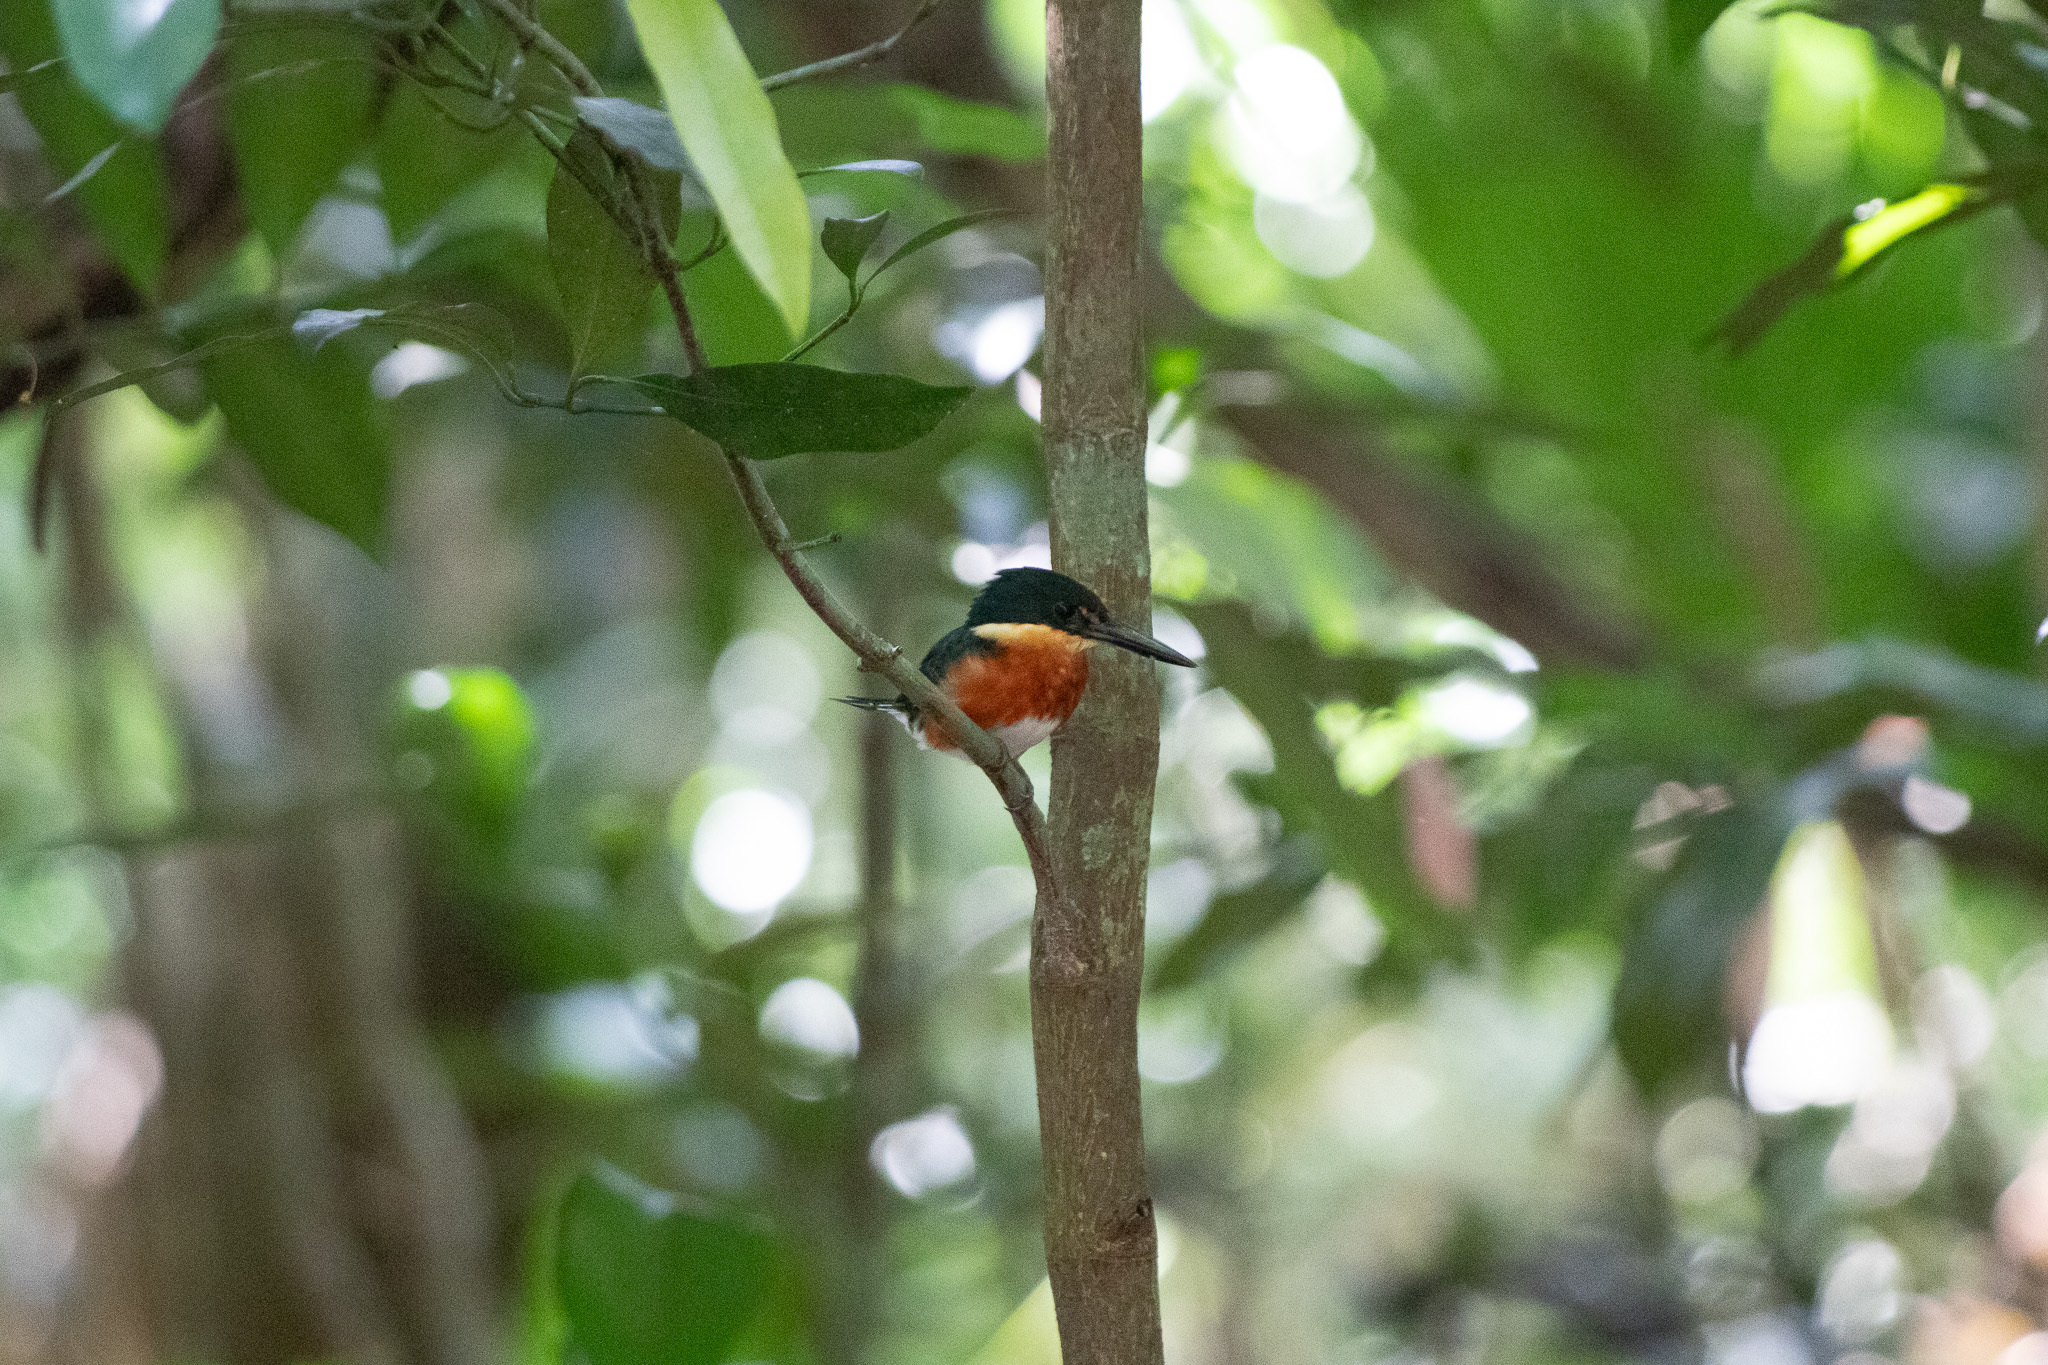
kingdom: Animalia
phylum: Chordata
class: Aves
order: Coraciiformes
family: Alcedinidae
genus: Chloroceryle
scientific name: Chloroceryle aenea
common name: American pygmy kingfisher
